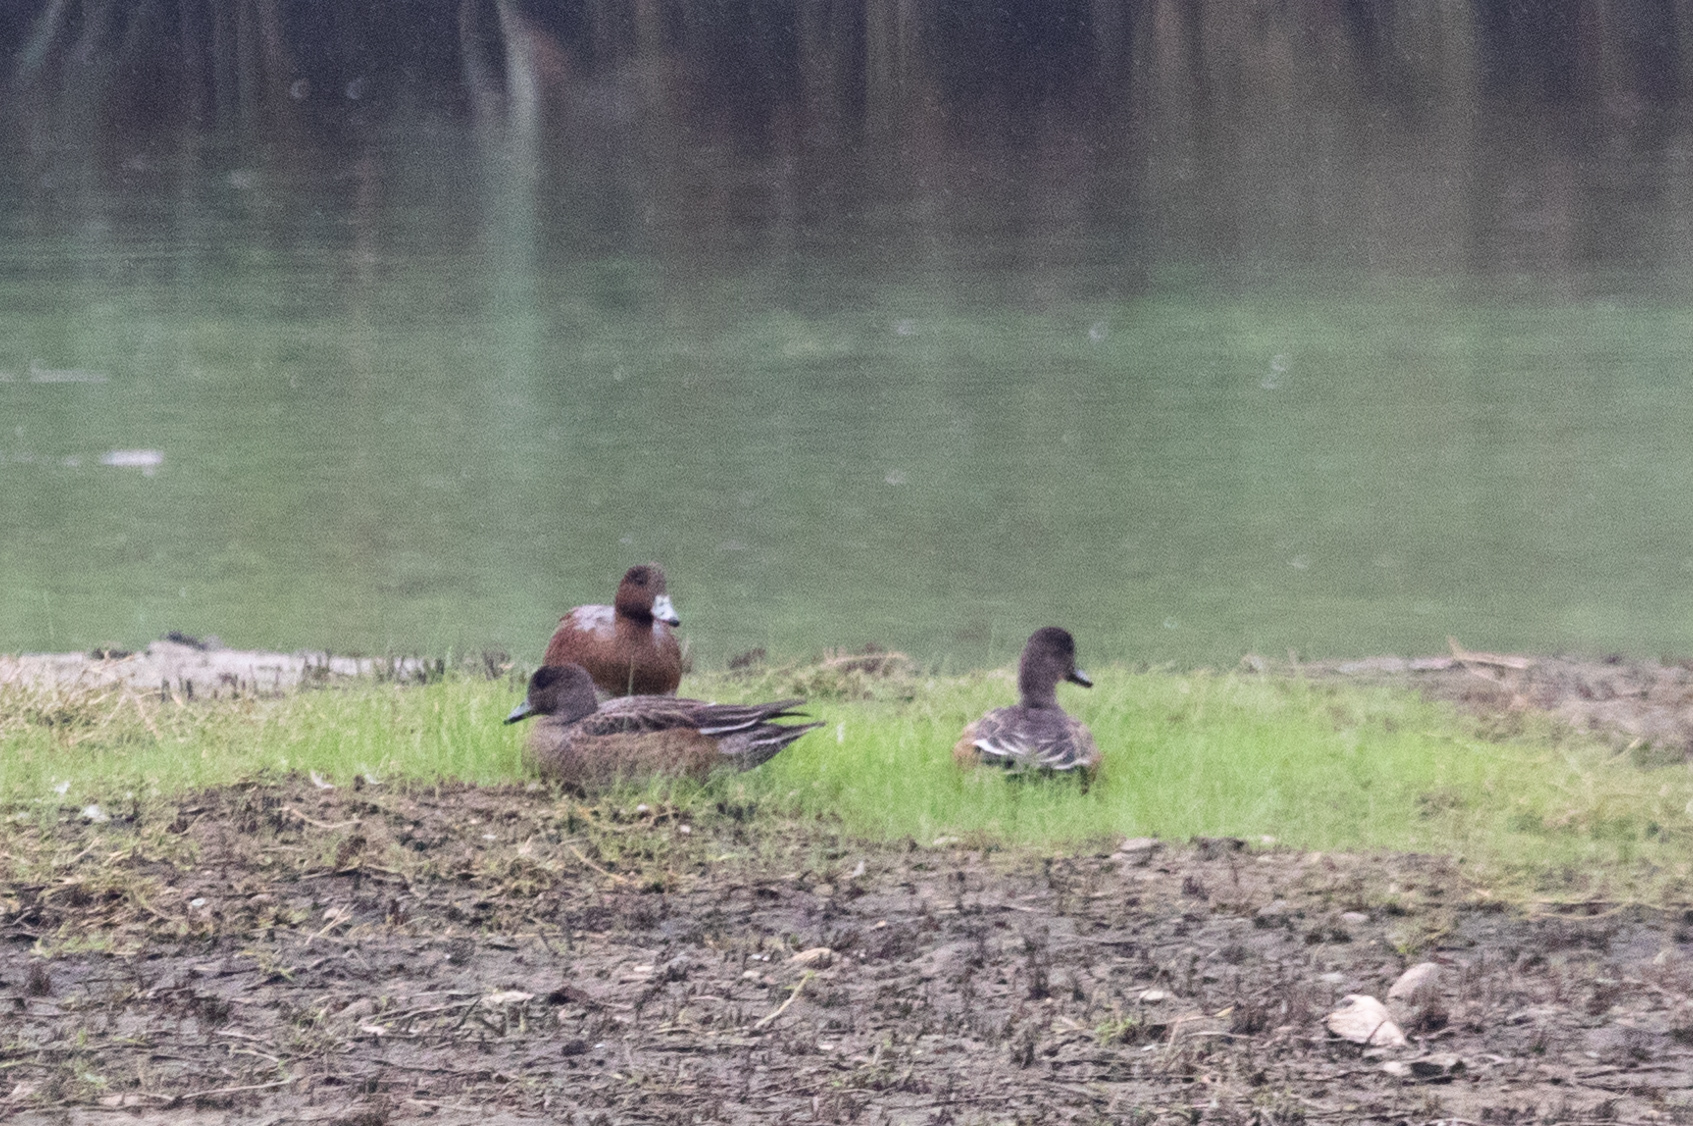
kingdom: Animalia
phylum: Chordata
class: Aves
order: Anseriformes
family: Anatidae
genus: Mareca
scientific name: Mareca penelope
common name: Eurasian wigeon
